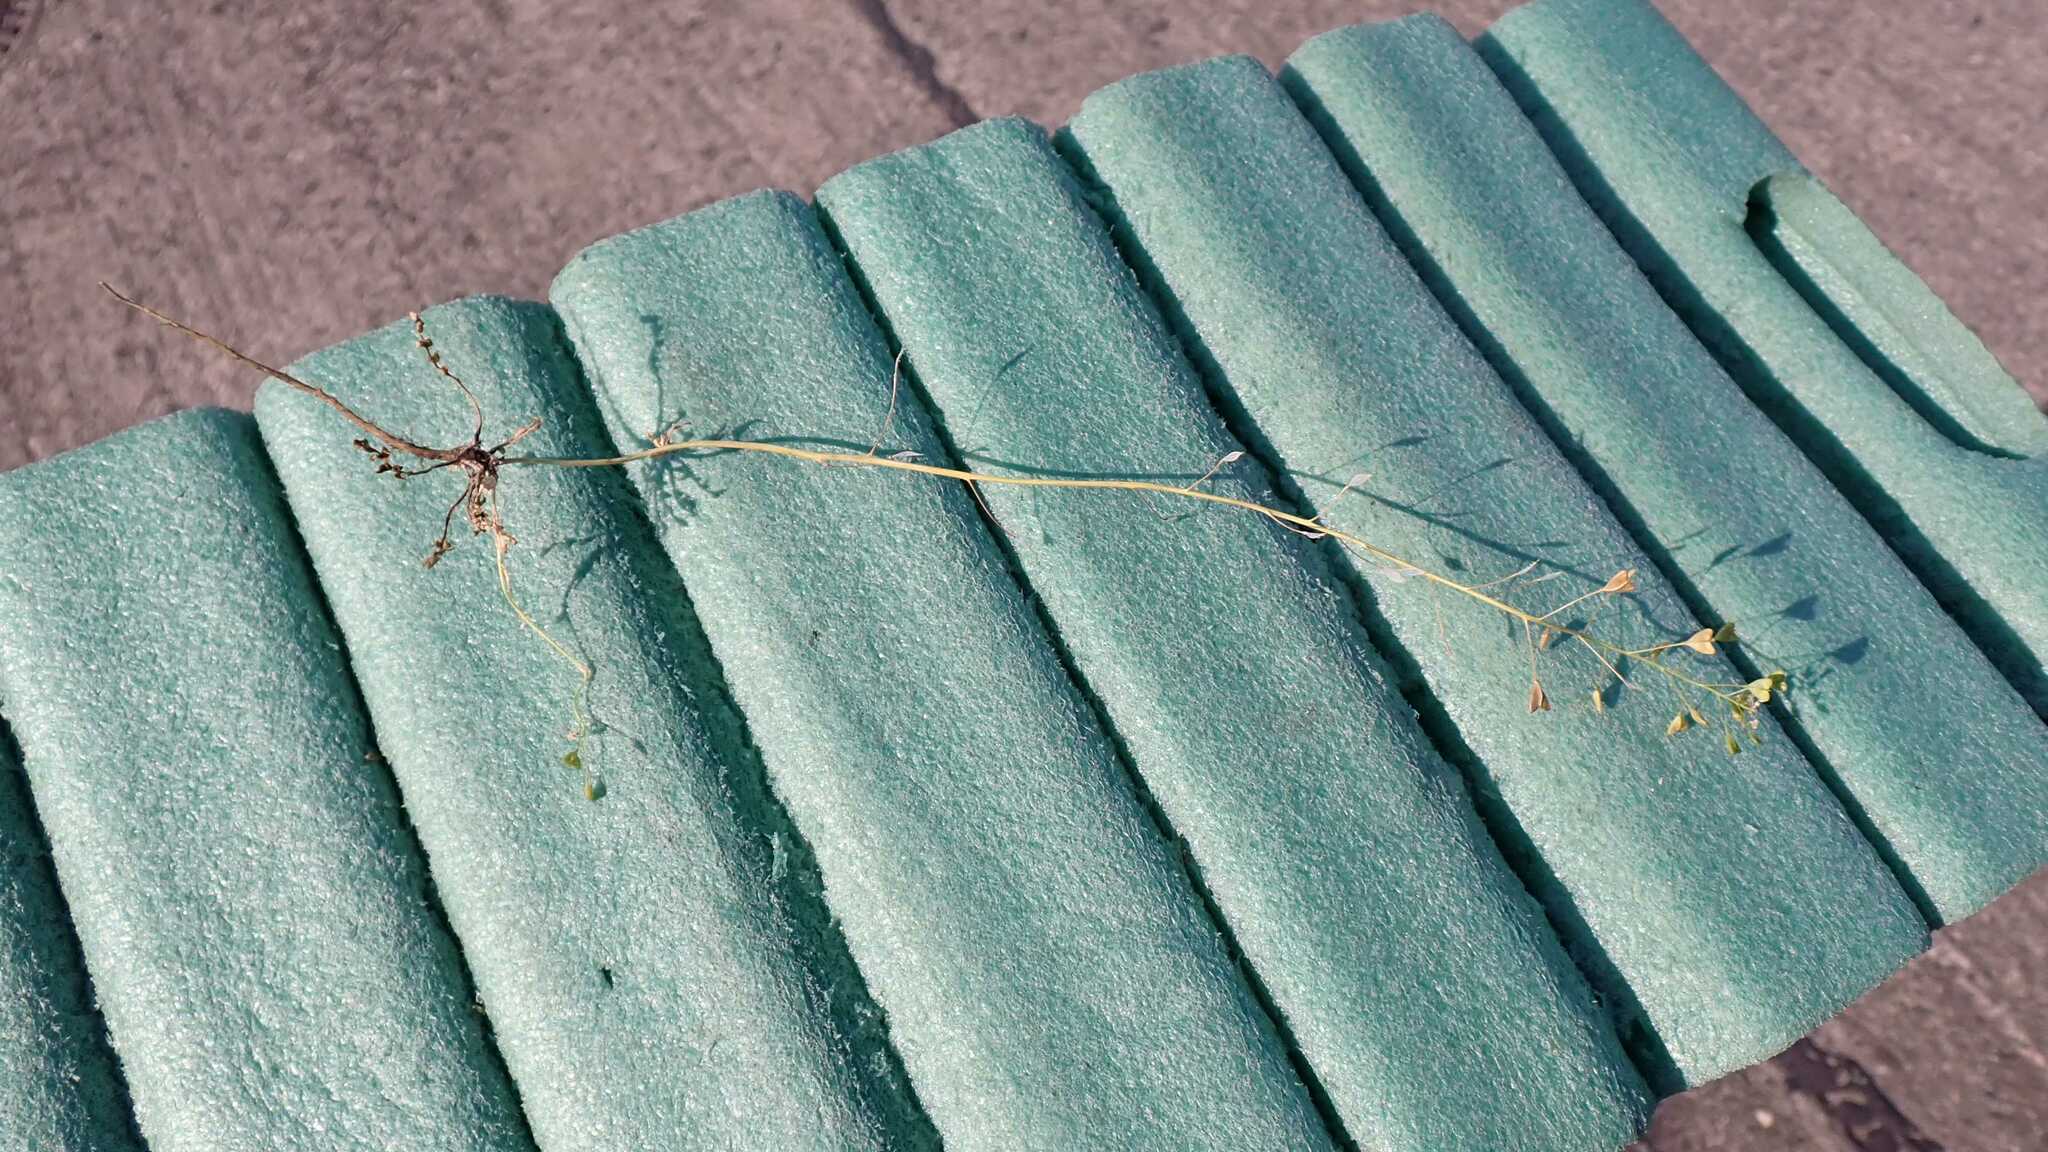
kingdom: Plantae
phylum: Tracheophyta
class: Magnoliopsida
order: Brassicales
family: Brassicaceae
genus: Capsella
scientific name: Capsella bursa-pastoris
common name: Shepherd's purse
